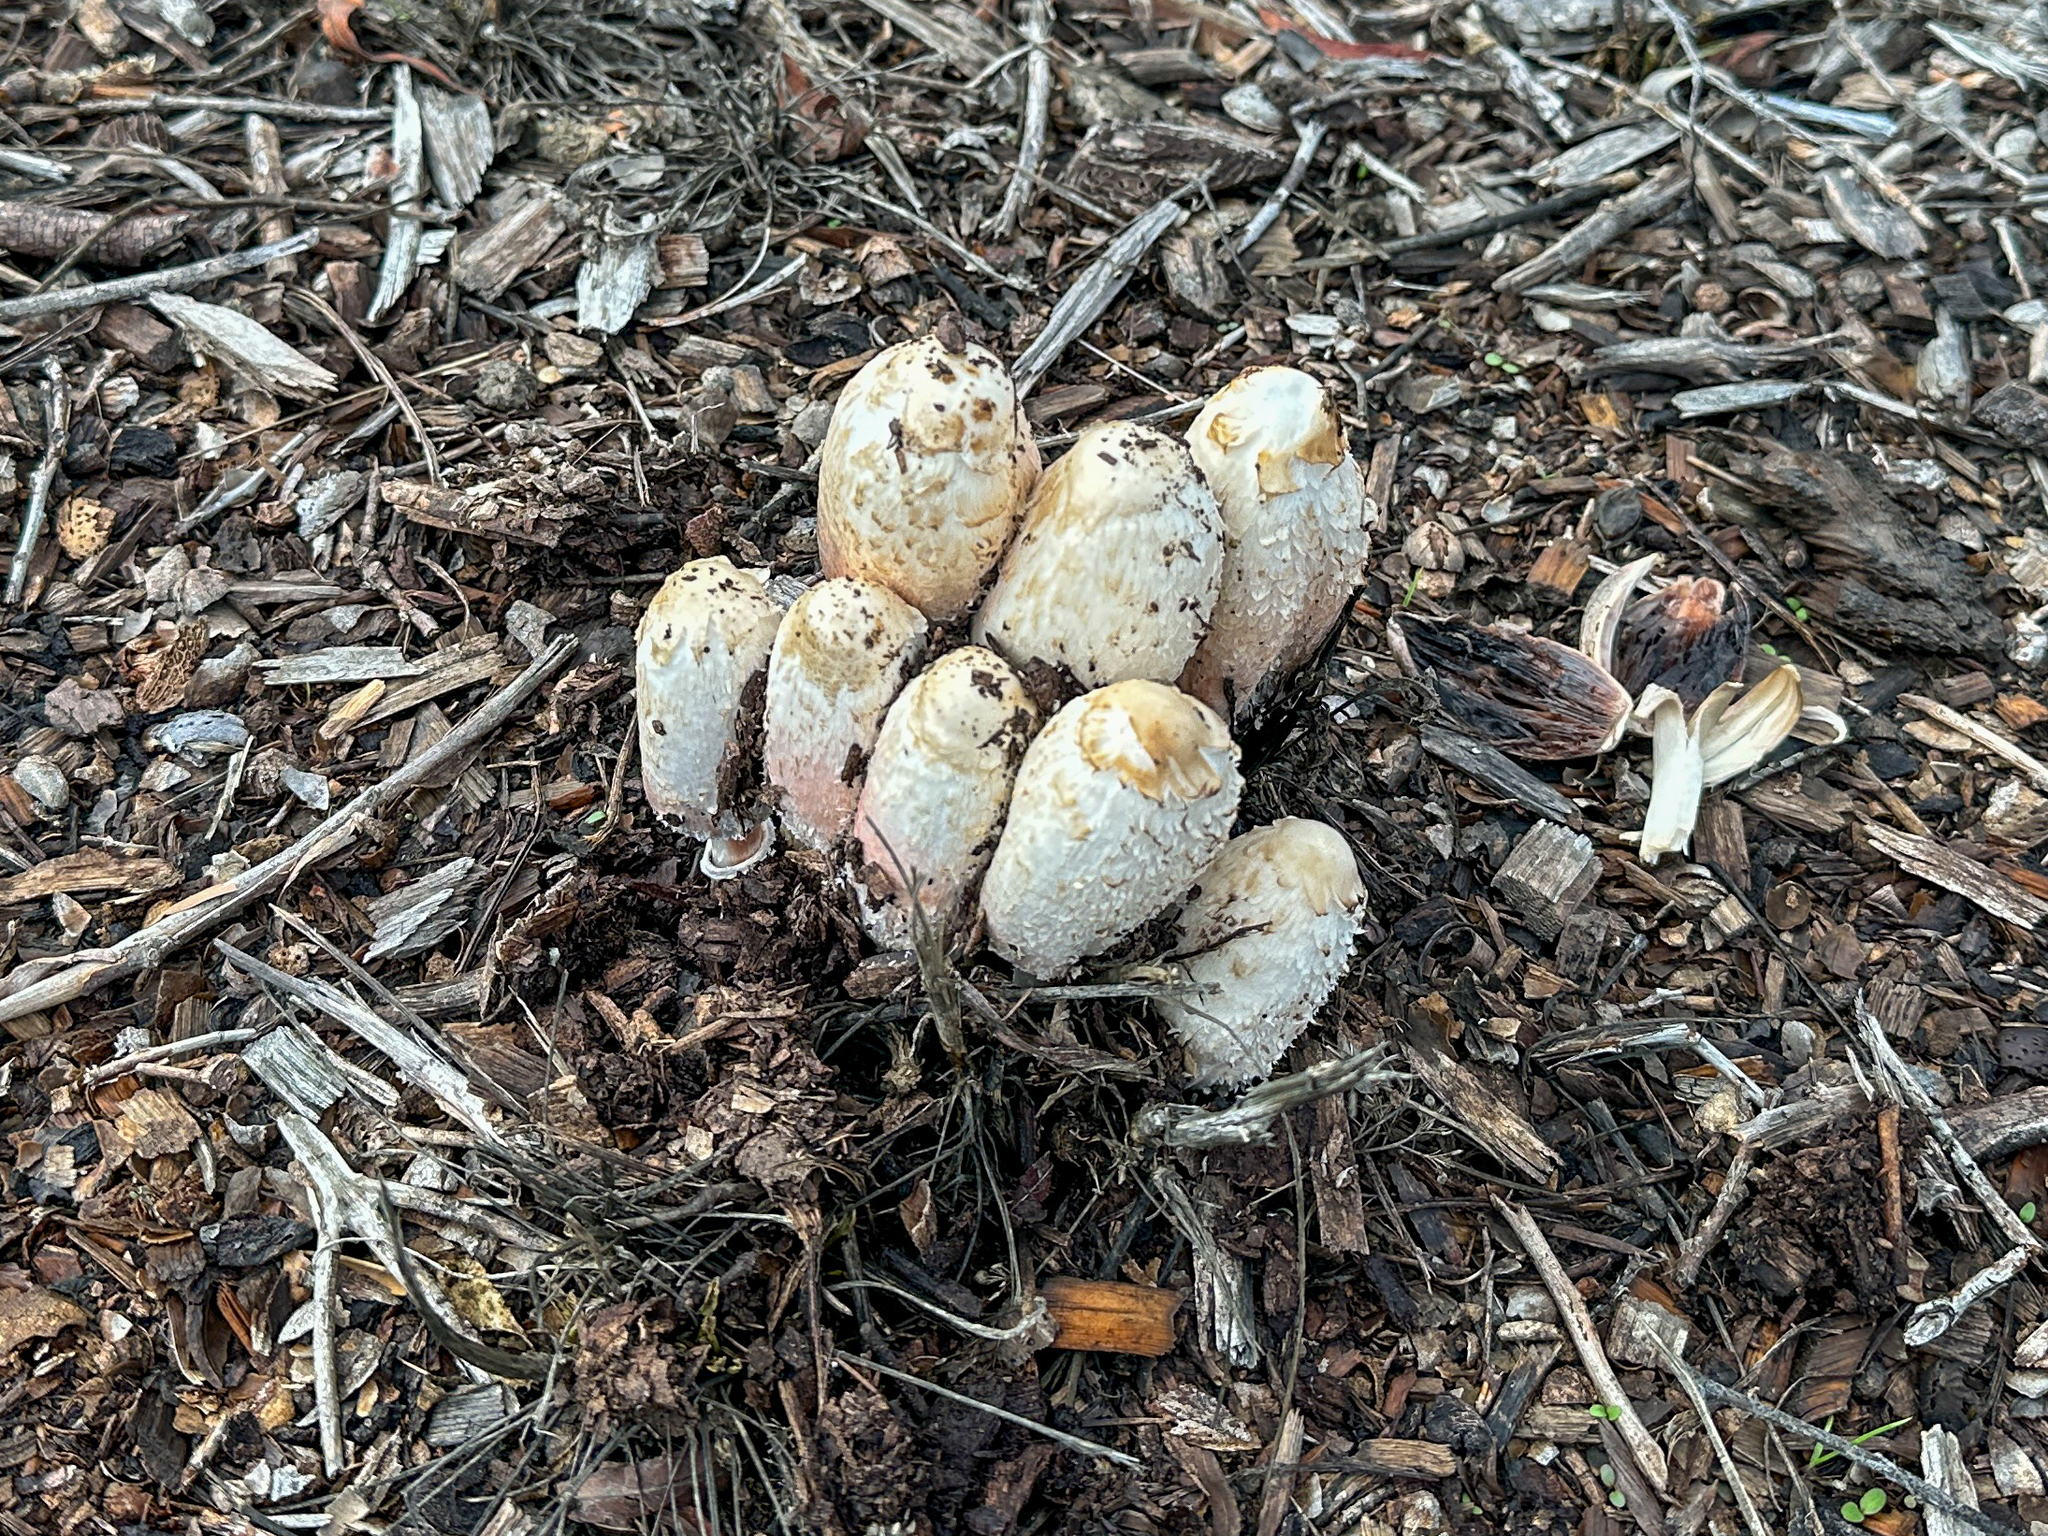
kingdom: Fungi
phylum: Basidiomycota
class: Agaricomycetes
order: Agaricales
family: Agaricaceae
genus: Coprinus
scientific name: Coprinus comatus
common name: Lawyer's wig
